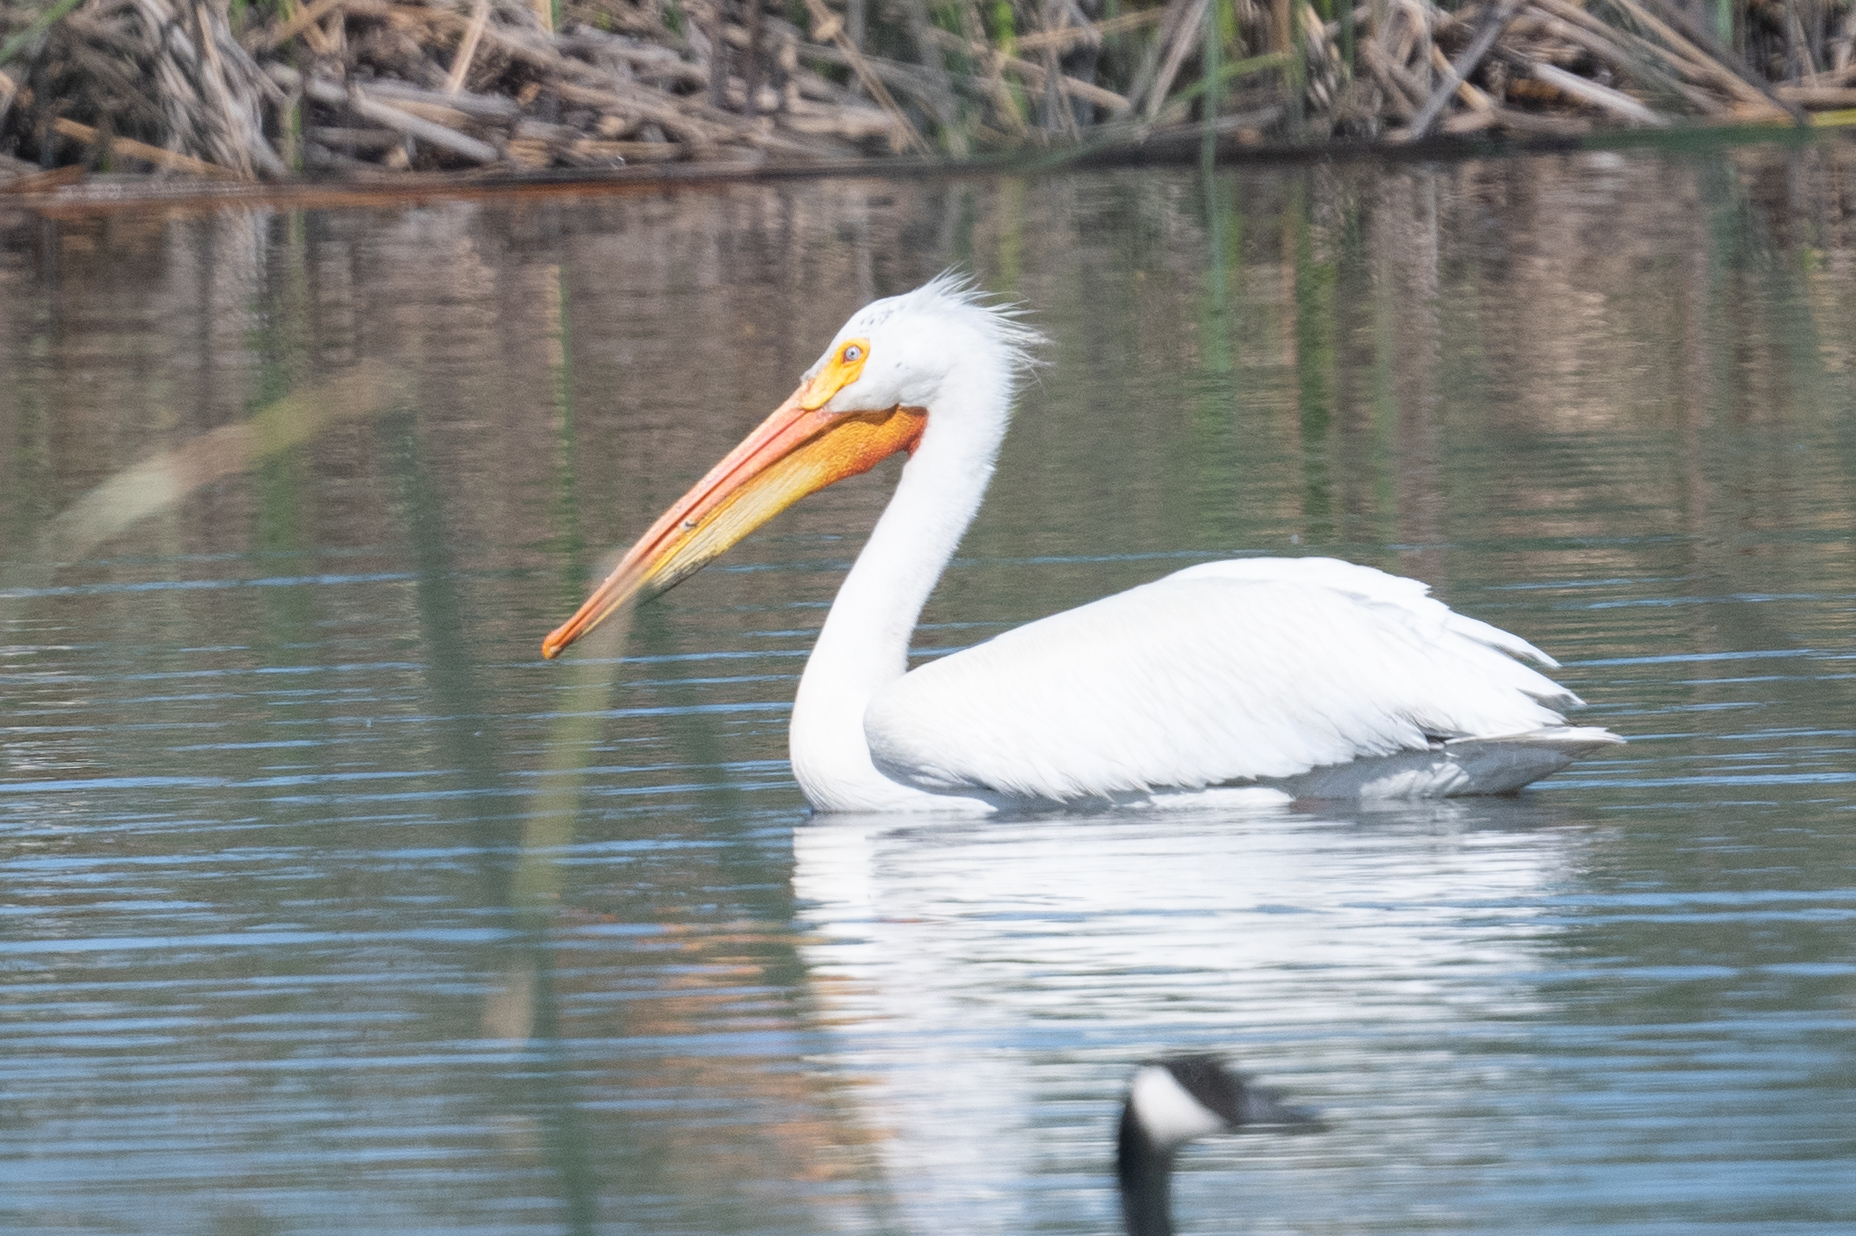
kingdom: Animalia
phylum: Chordata
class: Aves
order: Pelecaniformes
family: Pelecanidae
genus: Pelecanus
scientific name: Pelecanus erythrorhynchos
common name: American white pelican
